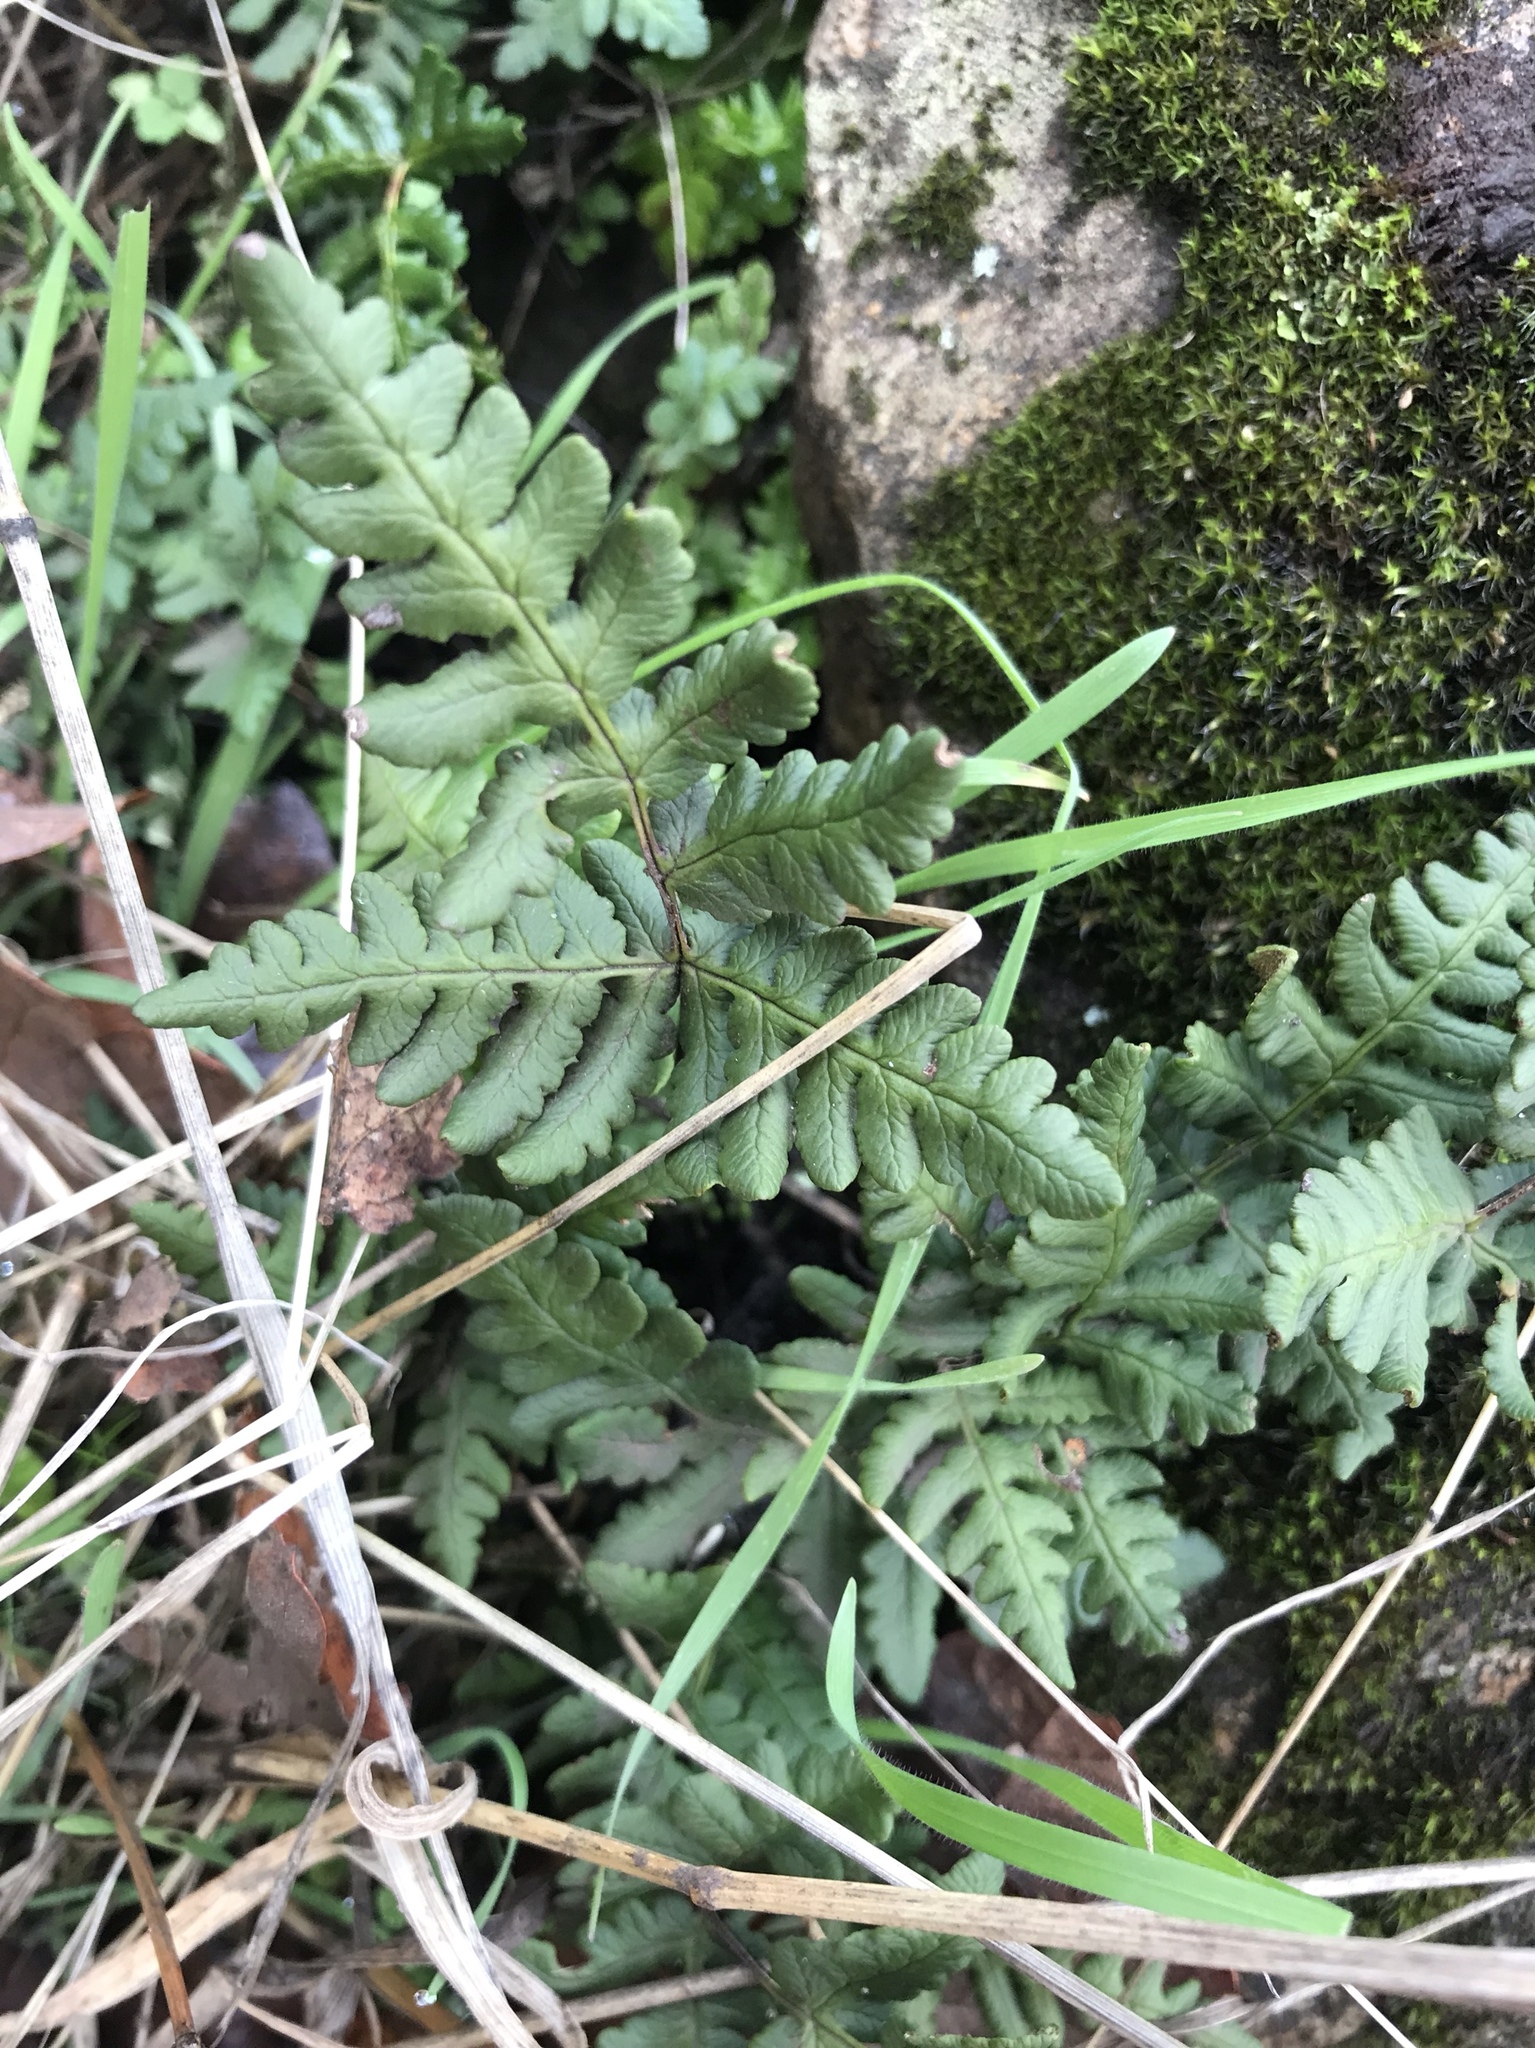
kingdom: Plantae
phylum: Tracheophyta
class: Polypodiopsida
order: Polypodiales
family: Pteridaceae
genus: Pentagramma
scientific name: Pentagramma triangularis
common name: Gold fern
